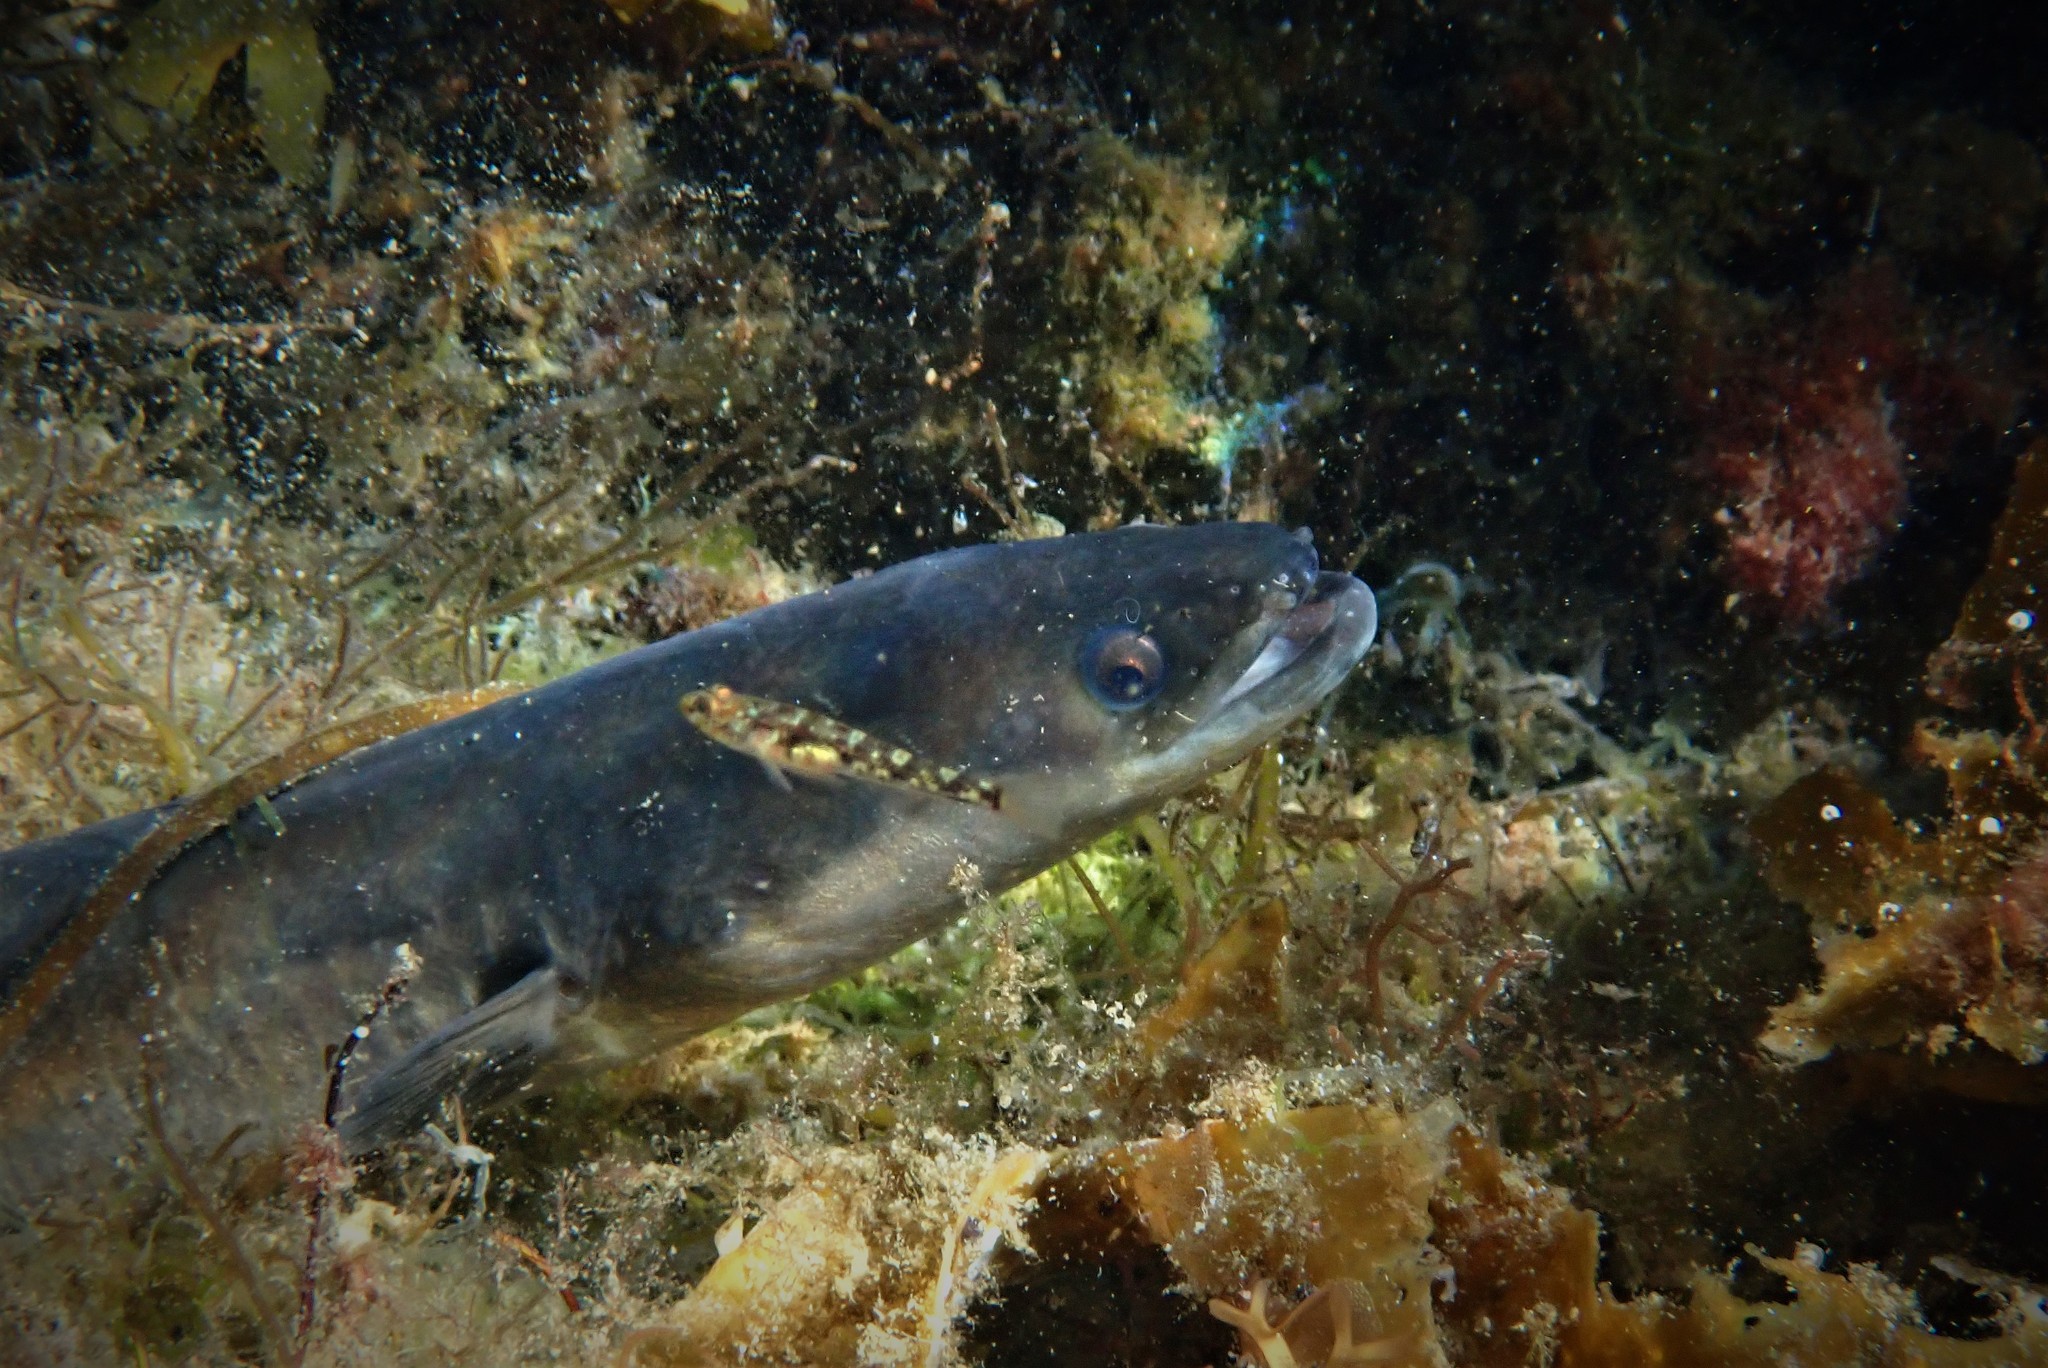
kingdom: Animalia
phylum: Chordata
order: Anguilliformes
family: Anguillidae
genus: Anguilla
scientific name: Anguilla anguilla
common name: European eel
